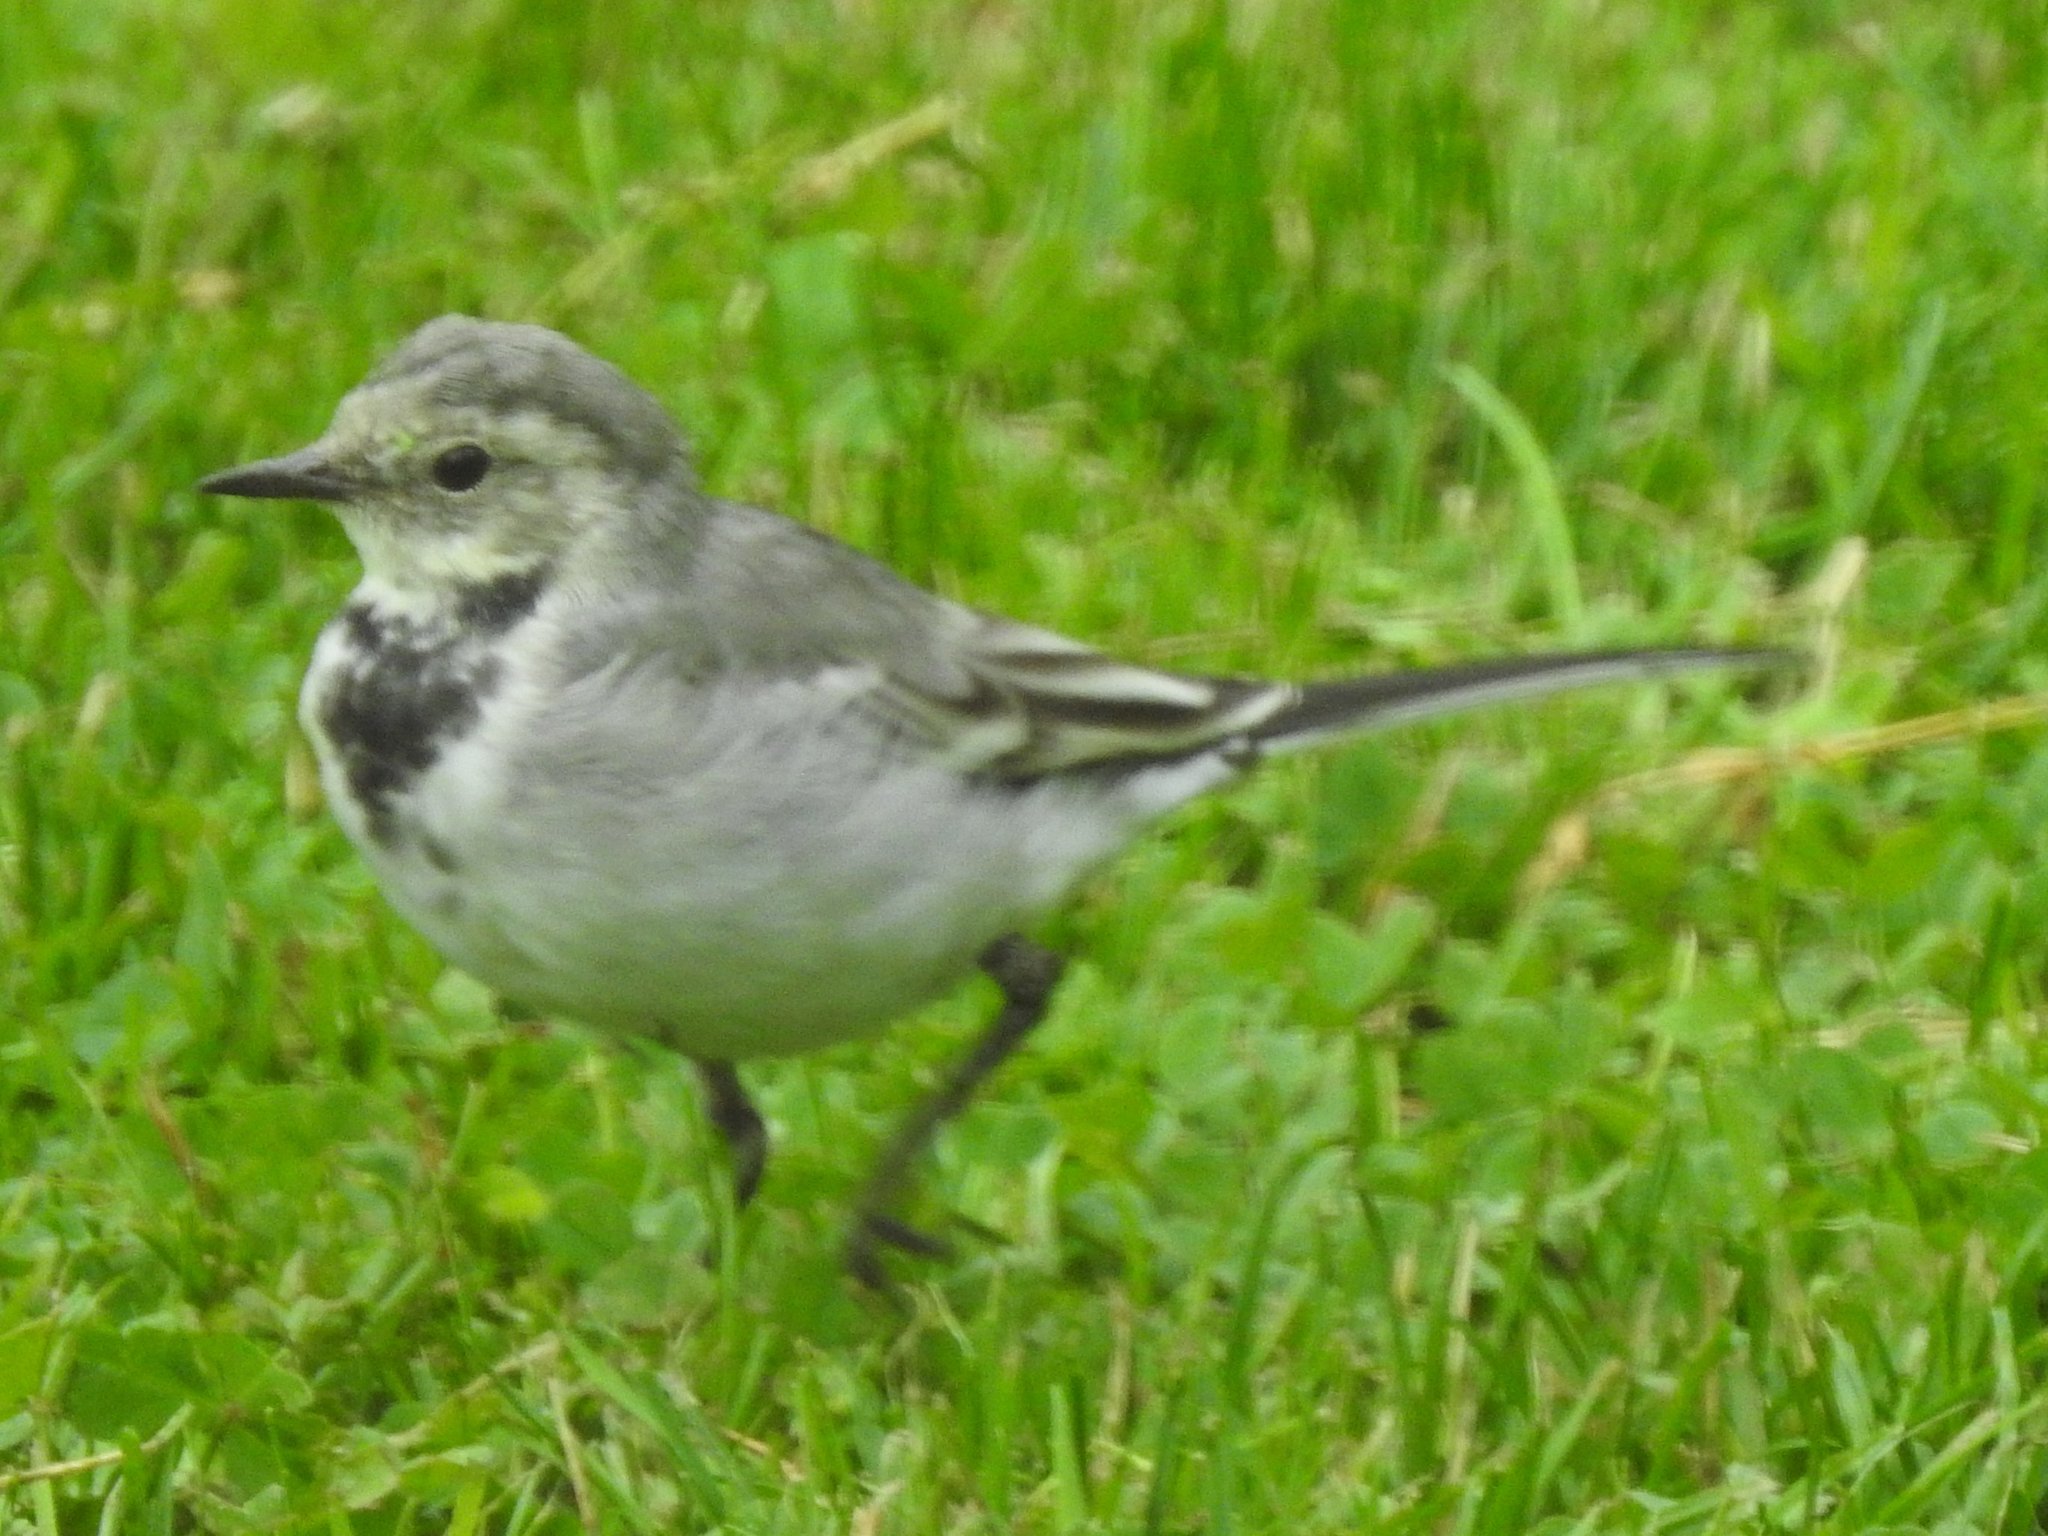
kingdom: Animalia
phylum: Chordata
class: Aves
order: Passeriformes
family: Motacillidae
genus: Motacilla
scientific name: Motacilla alba
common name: White wagtail
